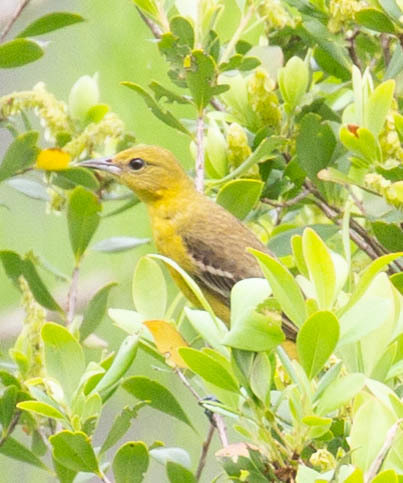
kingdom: Animalia
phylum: Chordata
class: Aves
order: Passeriformes
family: Icteridae
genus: Icterus
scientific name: Icterus spurius
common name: Orchard oriole
